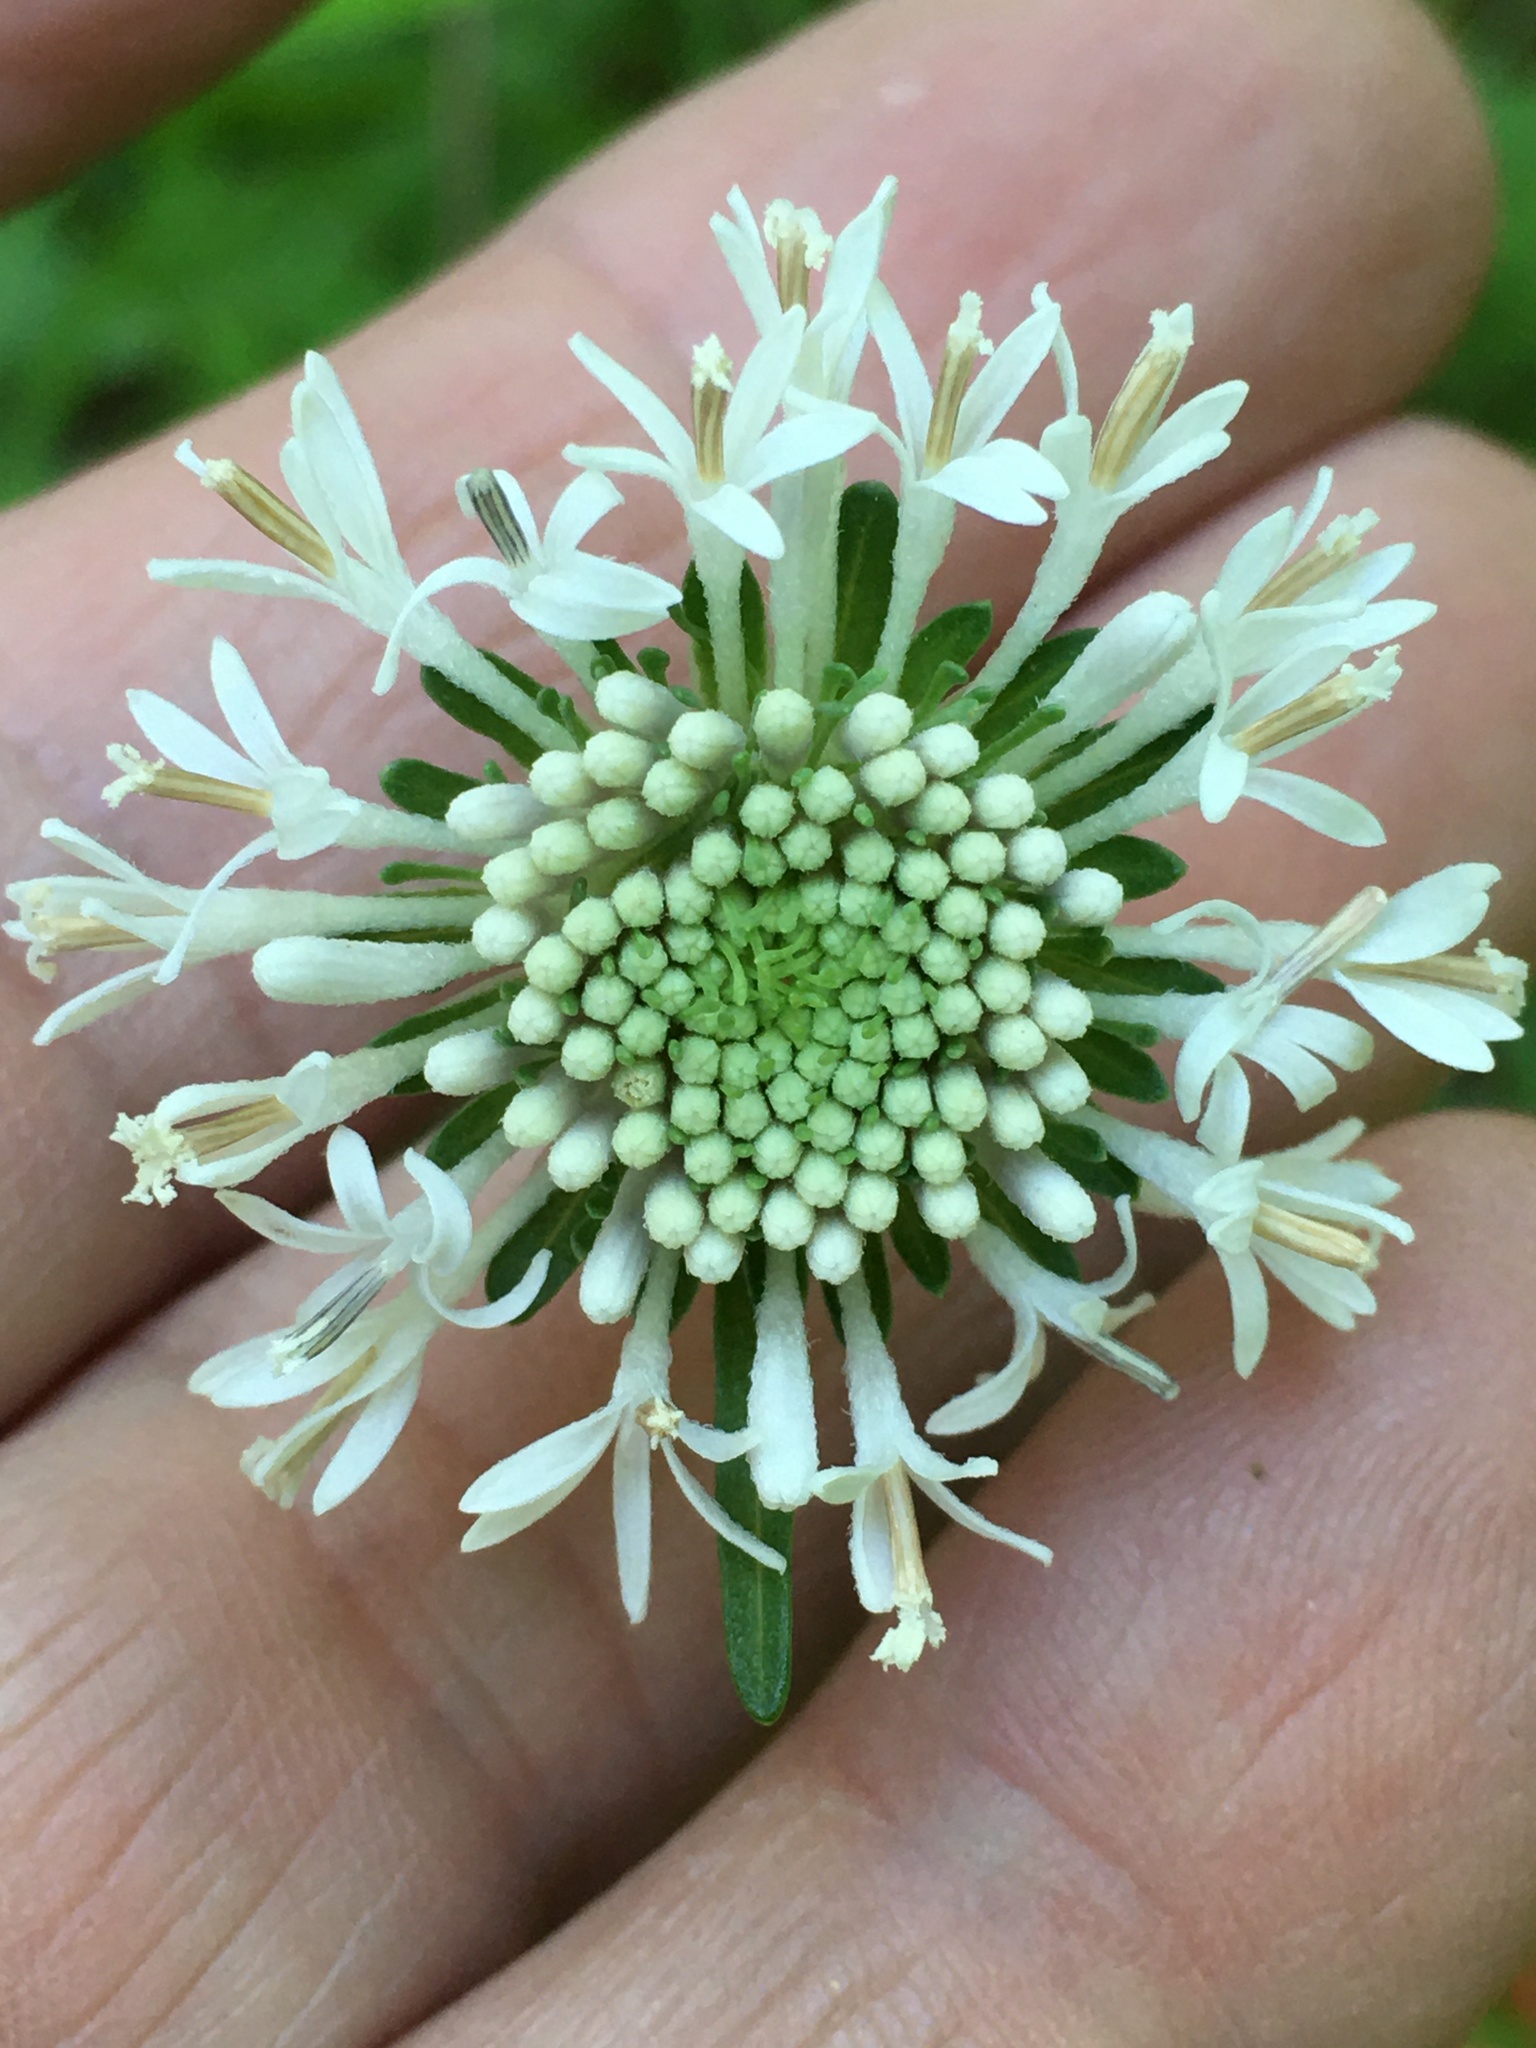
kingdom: Plantae
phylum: Tracheophyta
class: Magnoliopsida
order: Asterales
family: Asteraceae
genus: Marshallia
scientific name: Marshallia obovata
